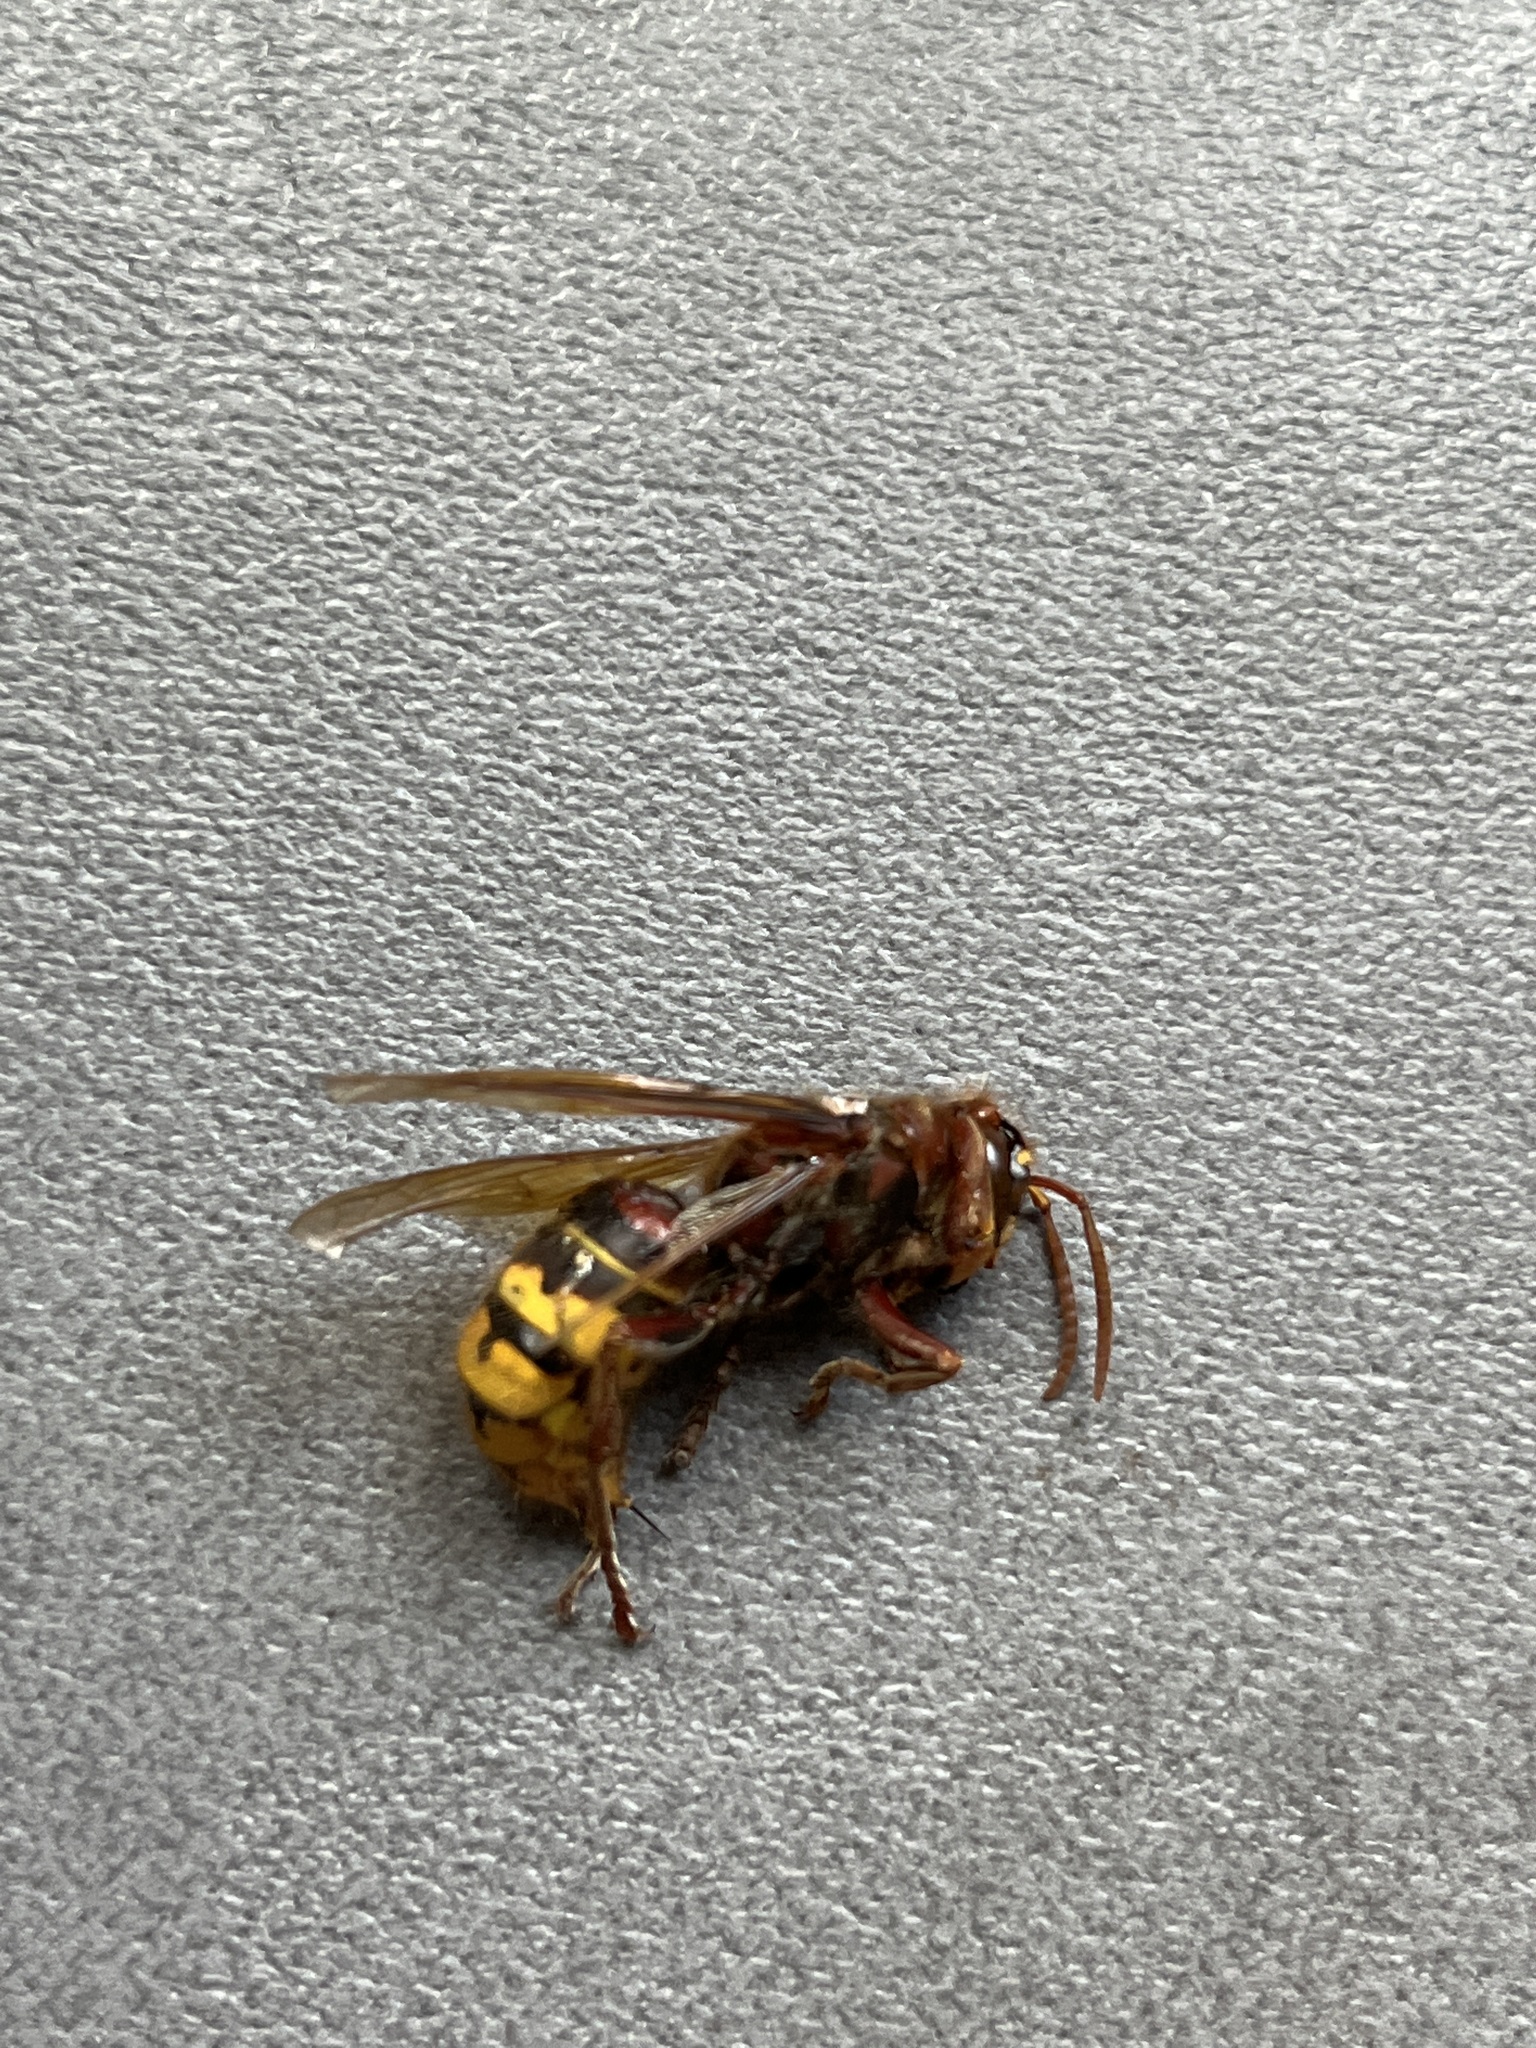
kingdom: Animalia
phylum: Arthropoda
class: Insecta
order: Hymenoptera
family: Vespidae
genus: Vespa
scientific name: Vespa crabro
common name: Hornet
